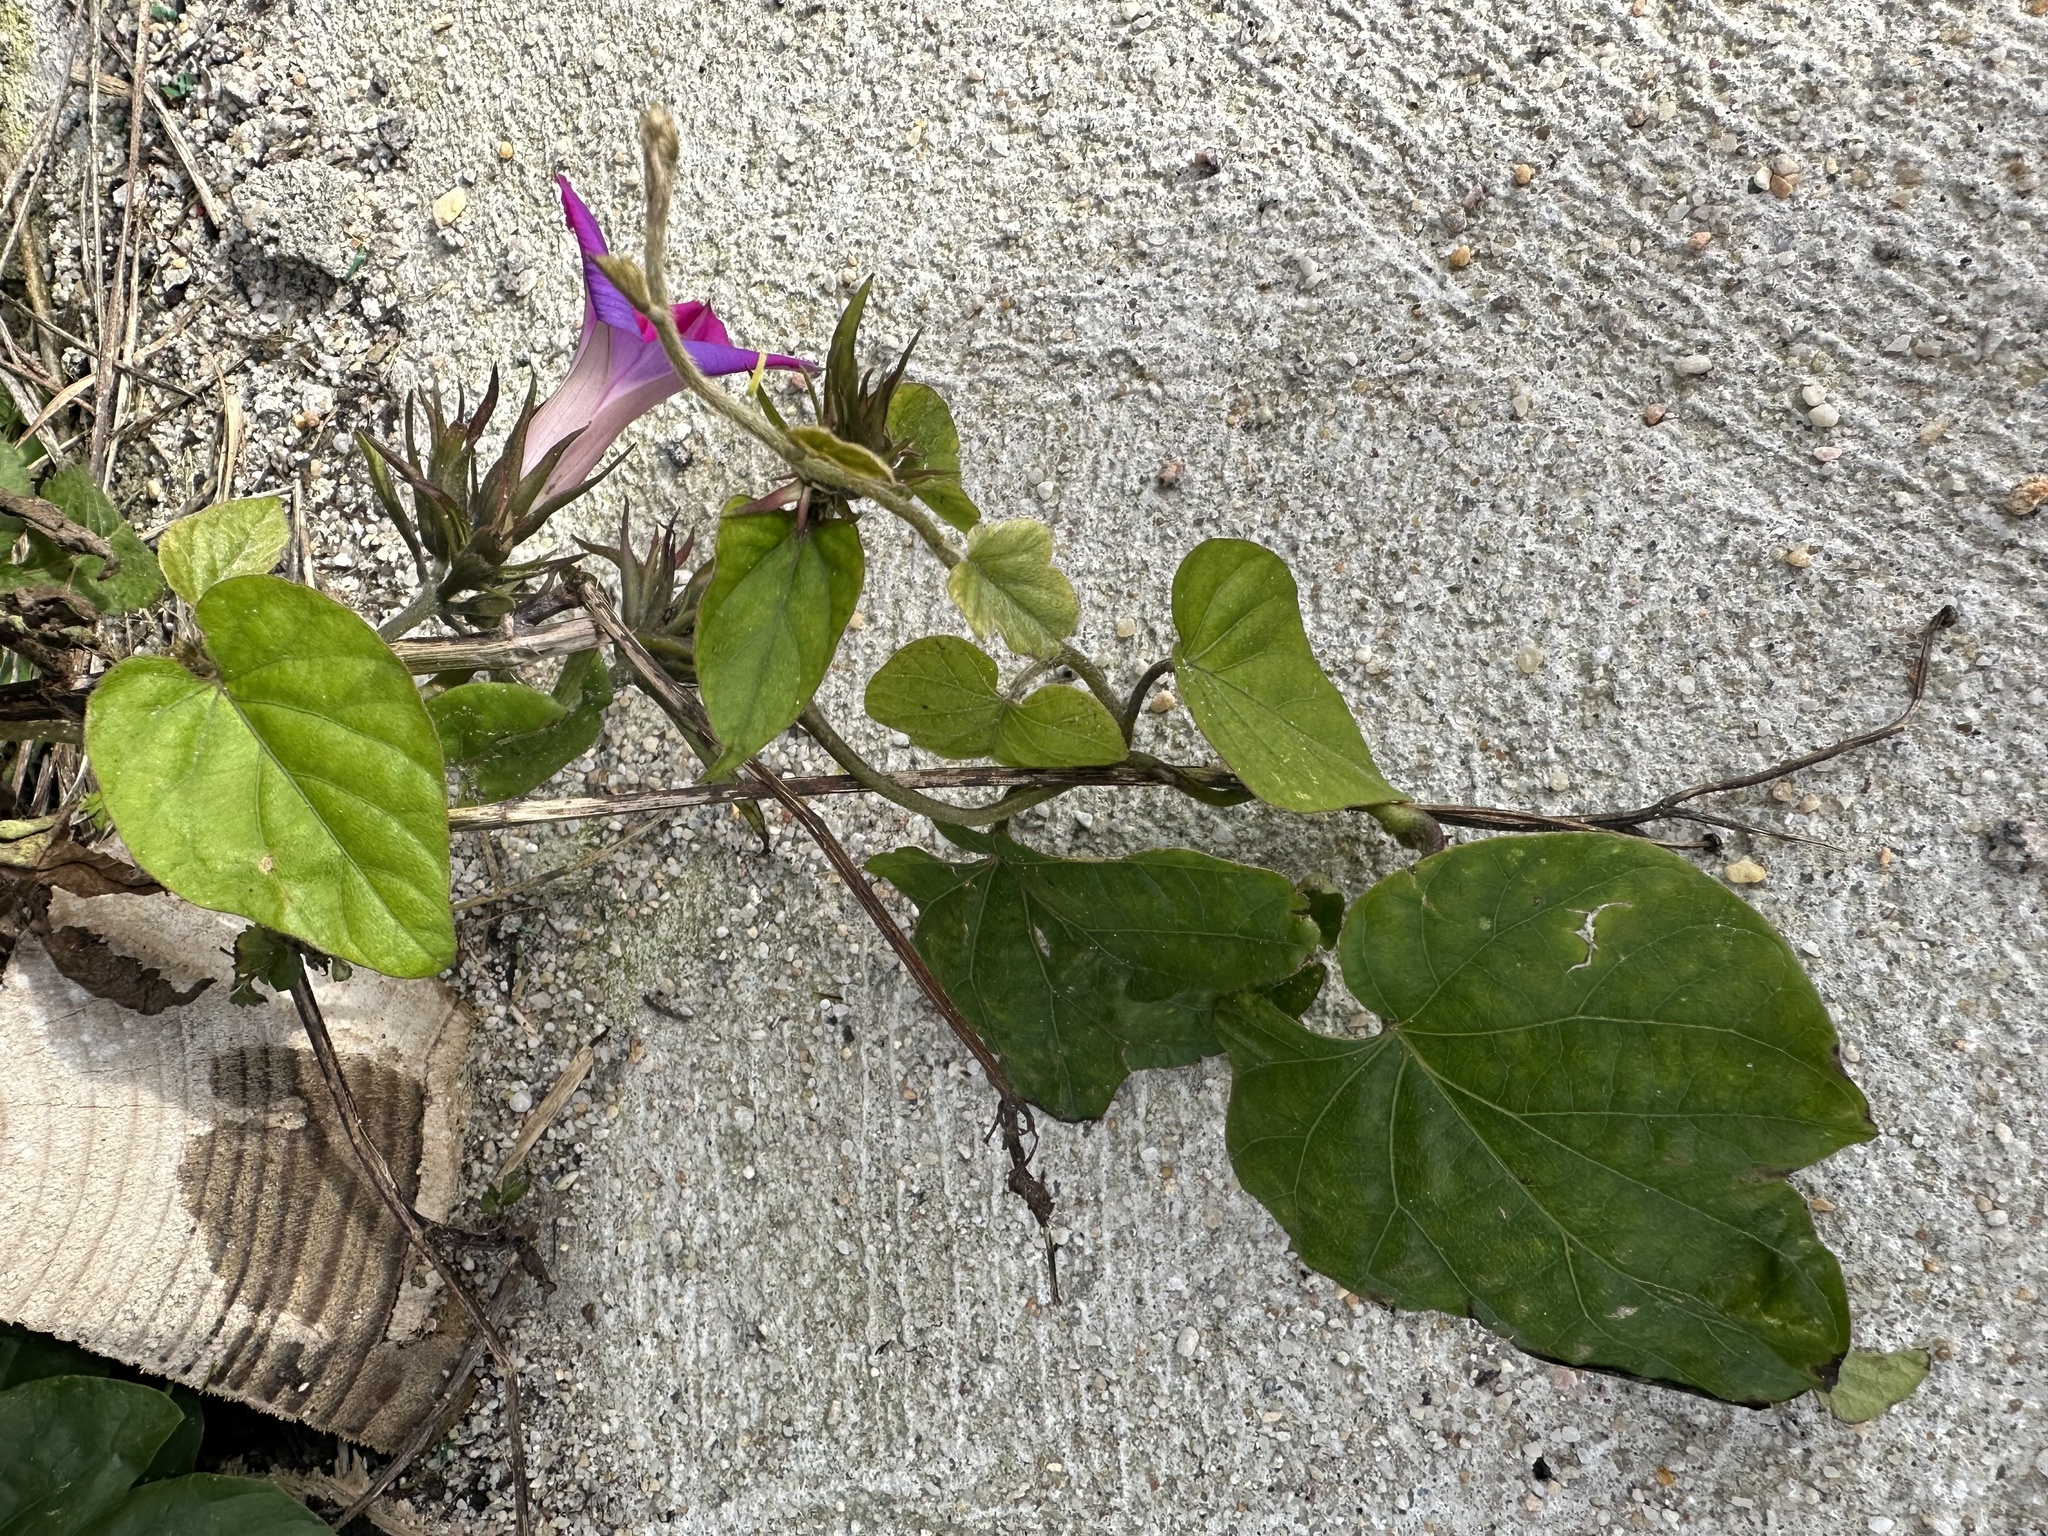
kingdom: Plantae
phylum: Tracheophyta
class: Magnoliopsida
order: Solanales
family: Convolvulaceae
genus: Ipomoea
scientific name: Ipomoea indica
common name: Blue dawnflower
